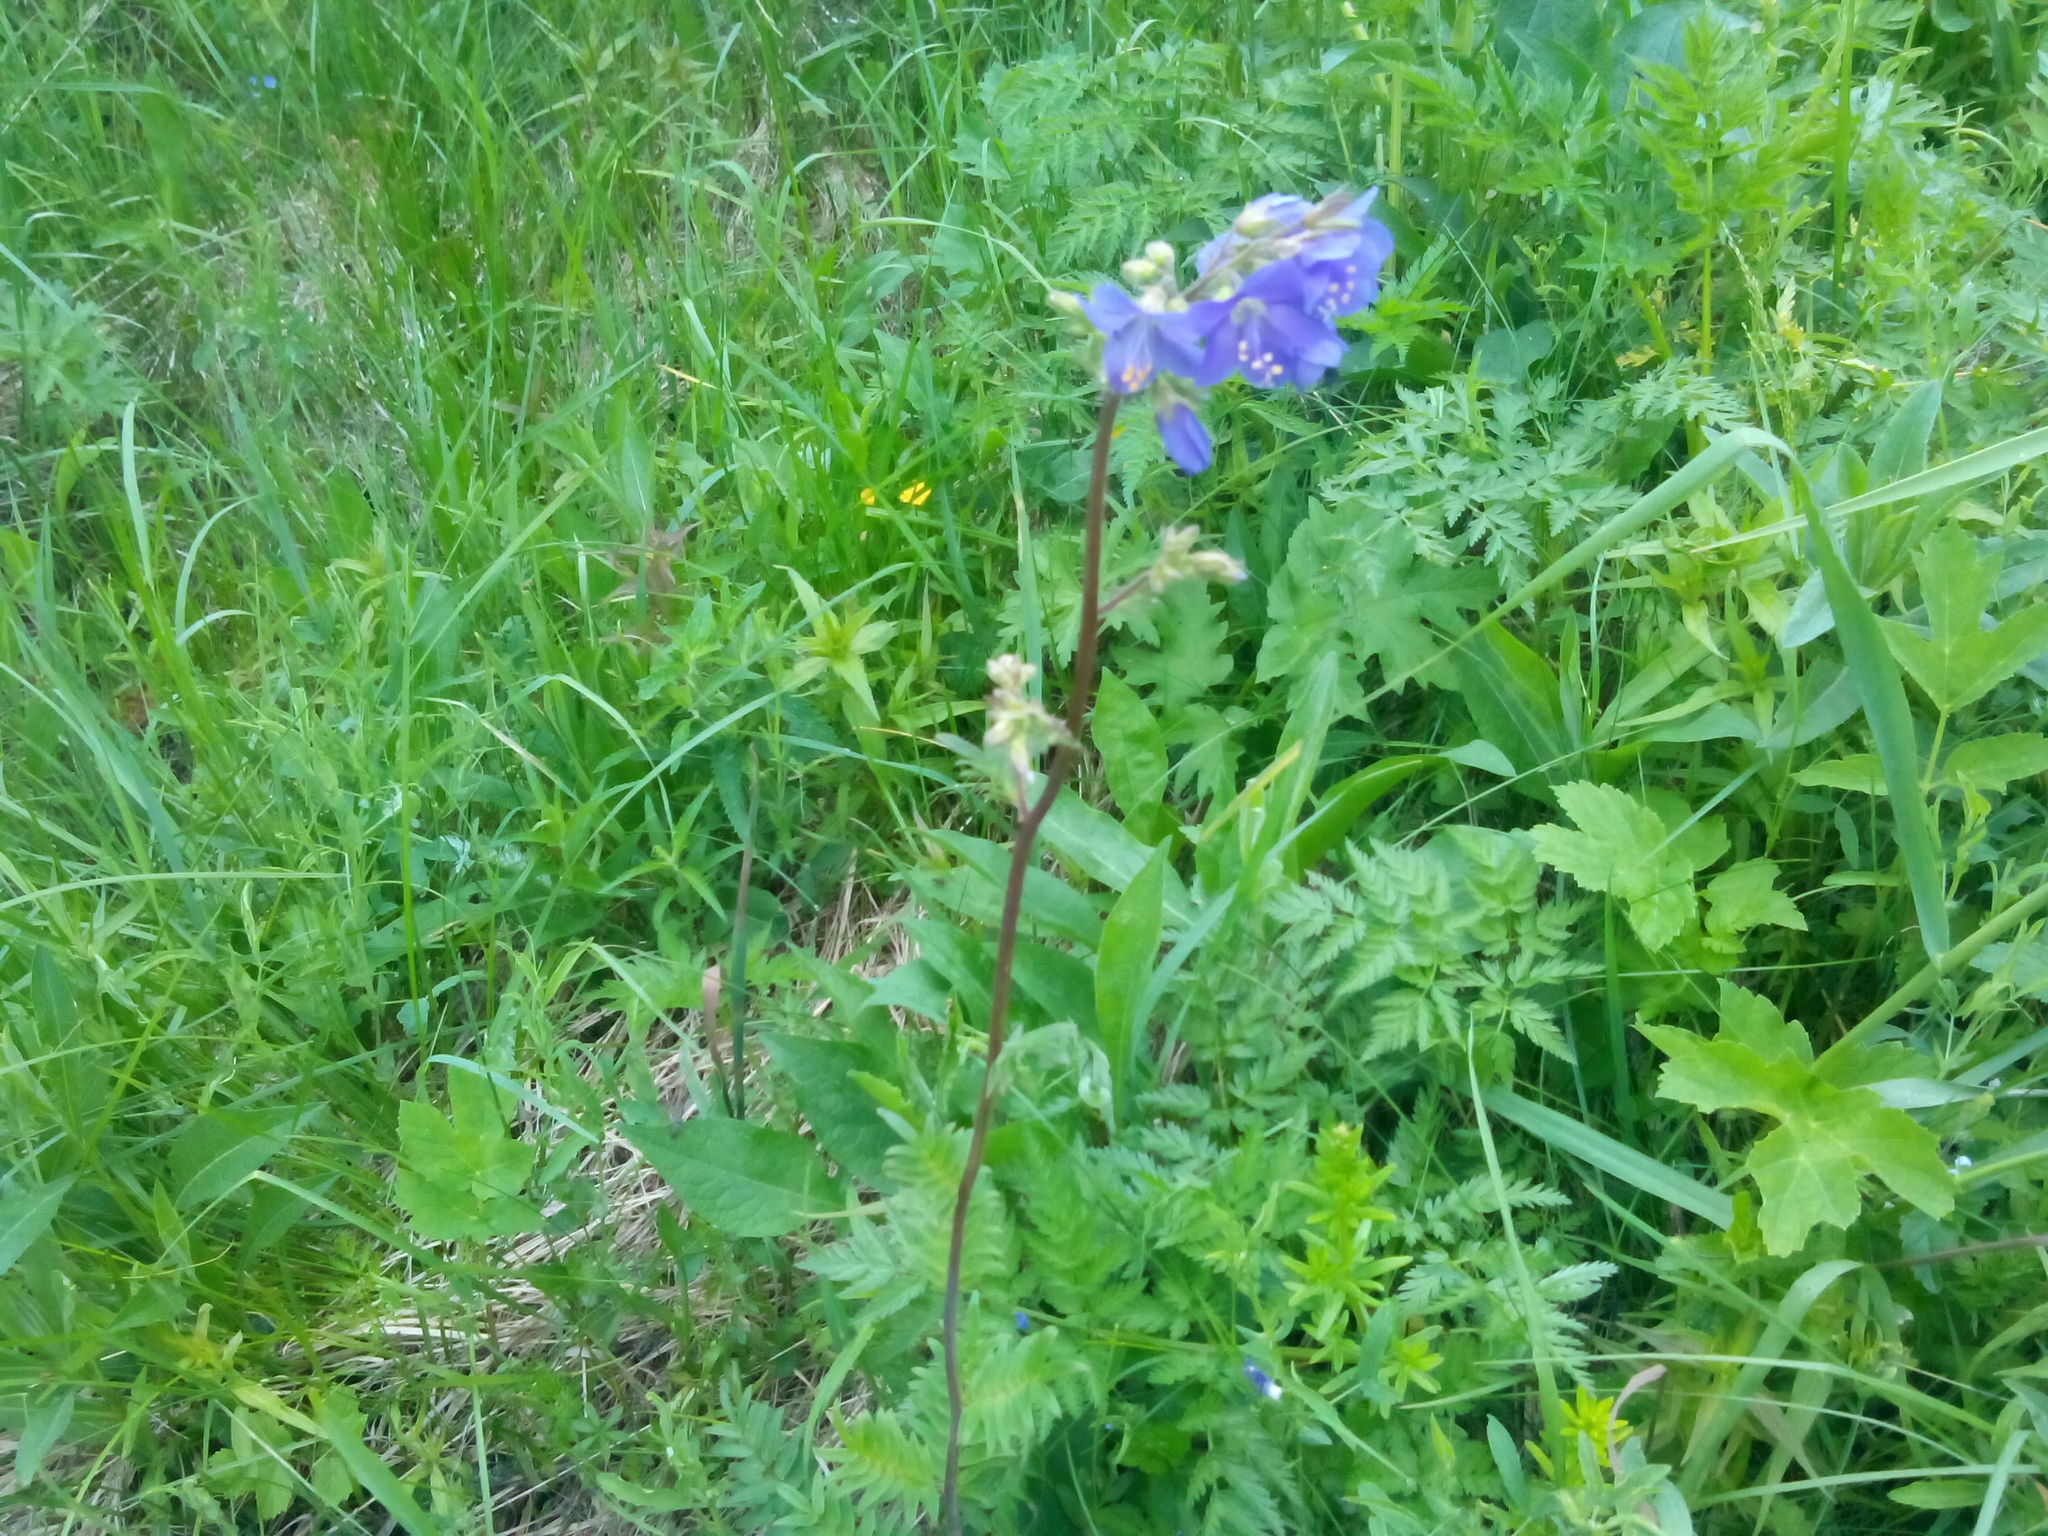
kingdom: Plantae
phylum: Tracheophyta
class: Magnoliopsida
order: Ericales
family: Polemoniaceae
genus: Polemonium
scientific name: Polemonium caeruleum
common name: Jacob's-ladder
